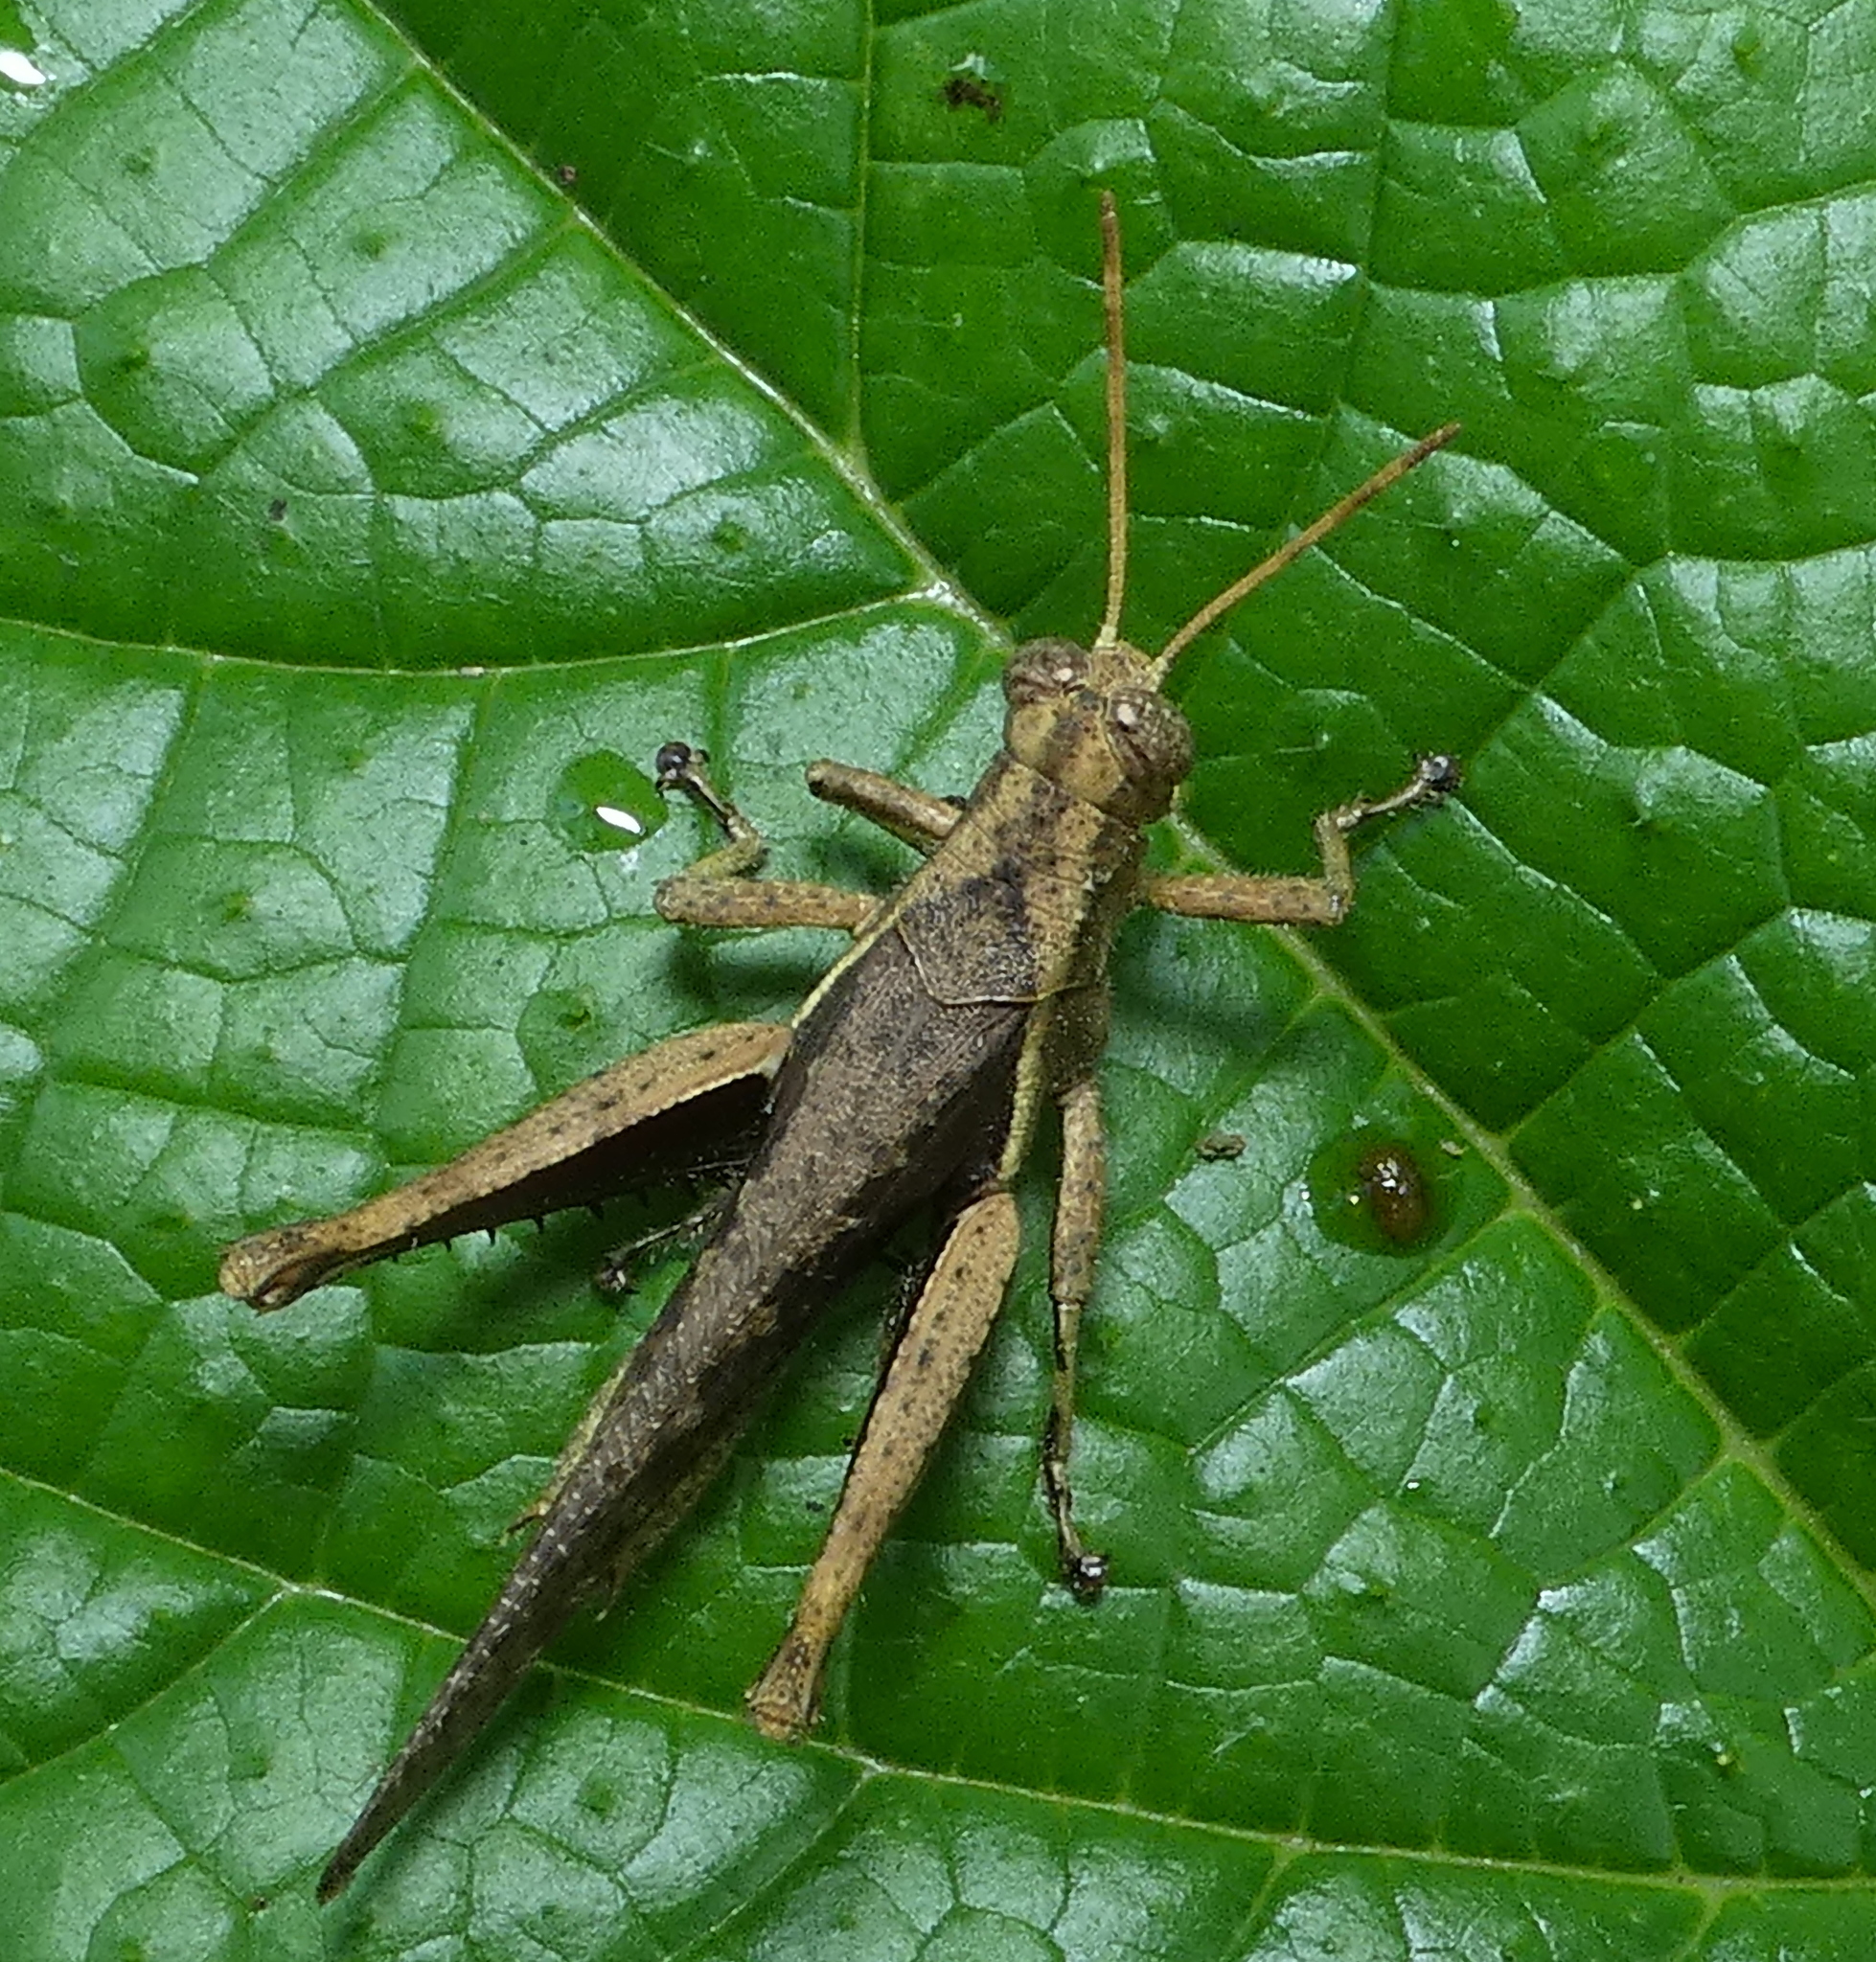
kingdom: Animalia
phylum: Arthropoda
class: Insecta
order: Orthoptera
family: Acrididae
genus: Abracris
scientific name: Abracris flavolineata
